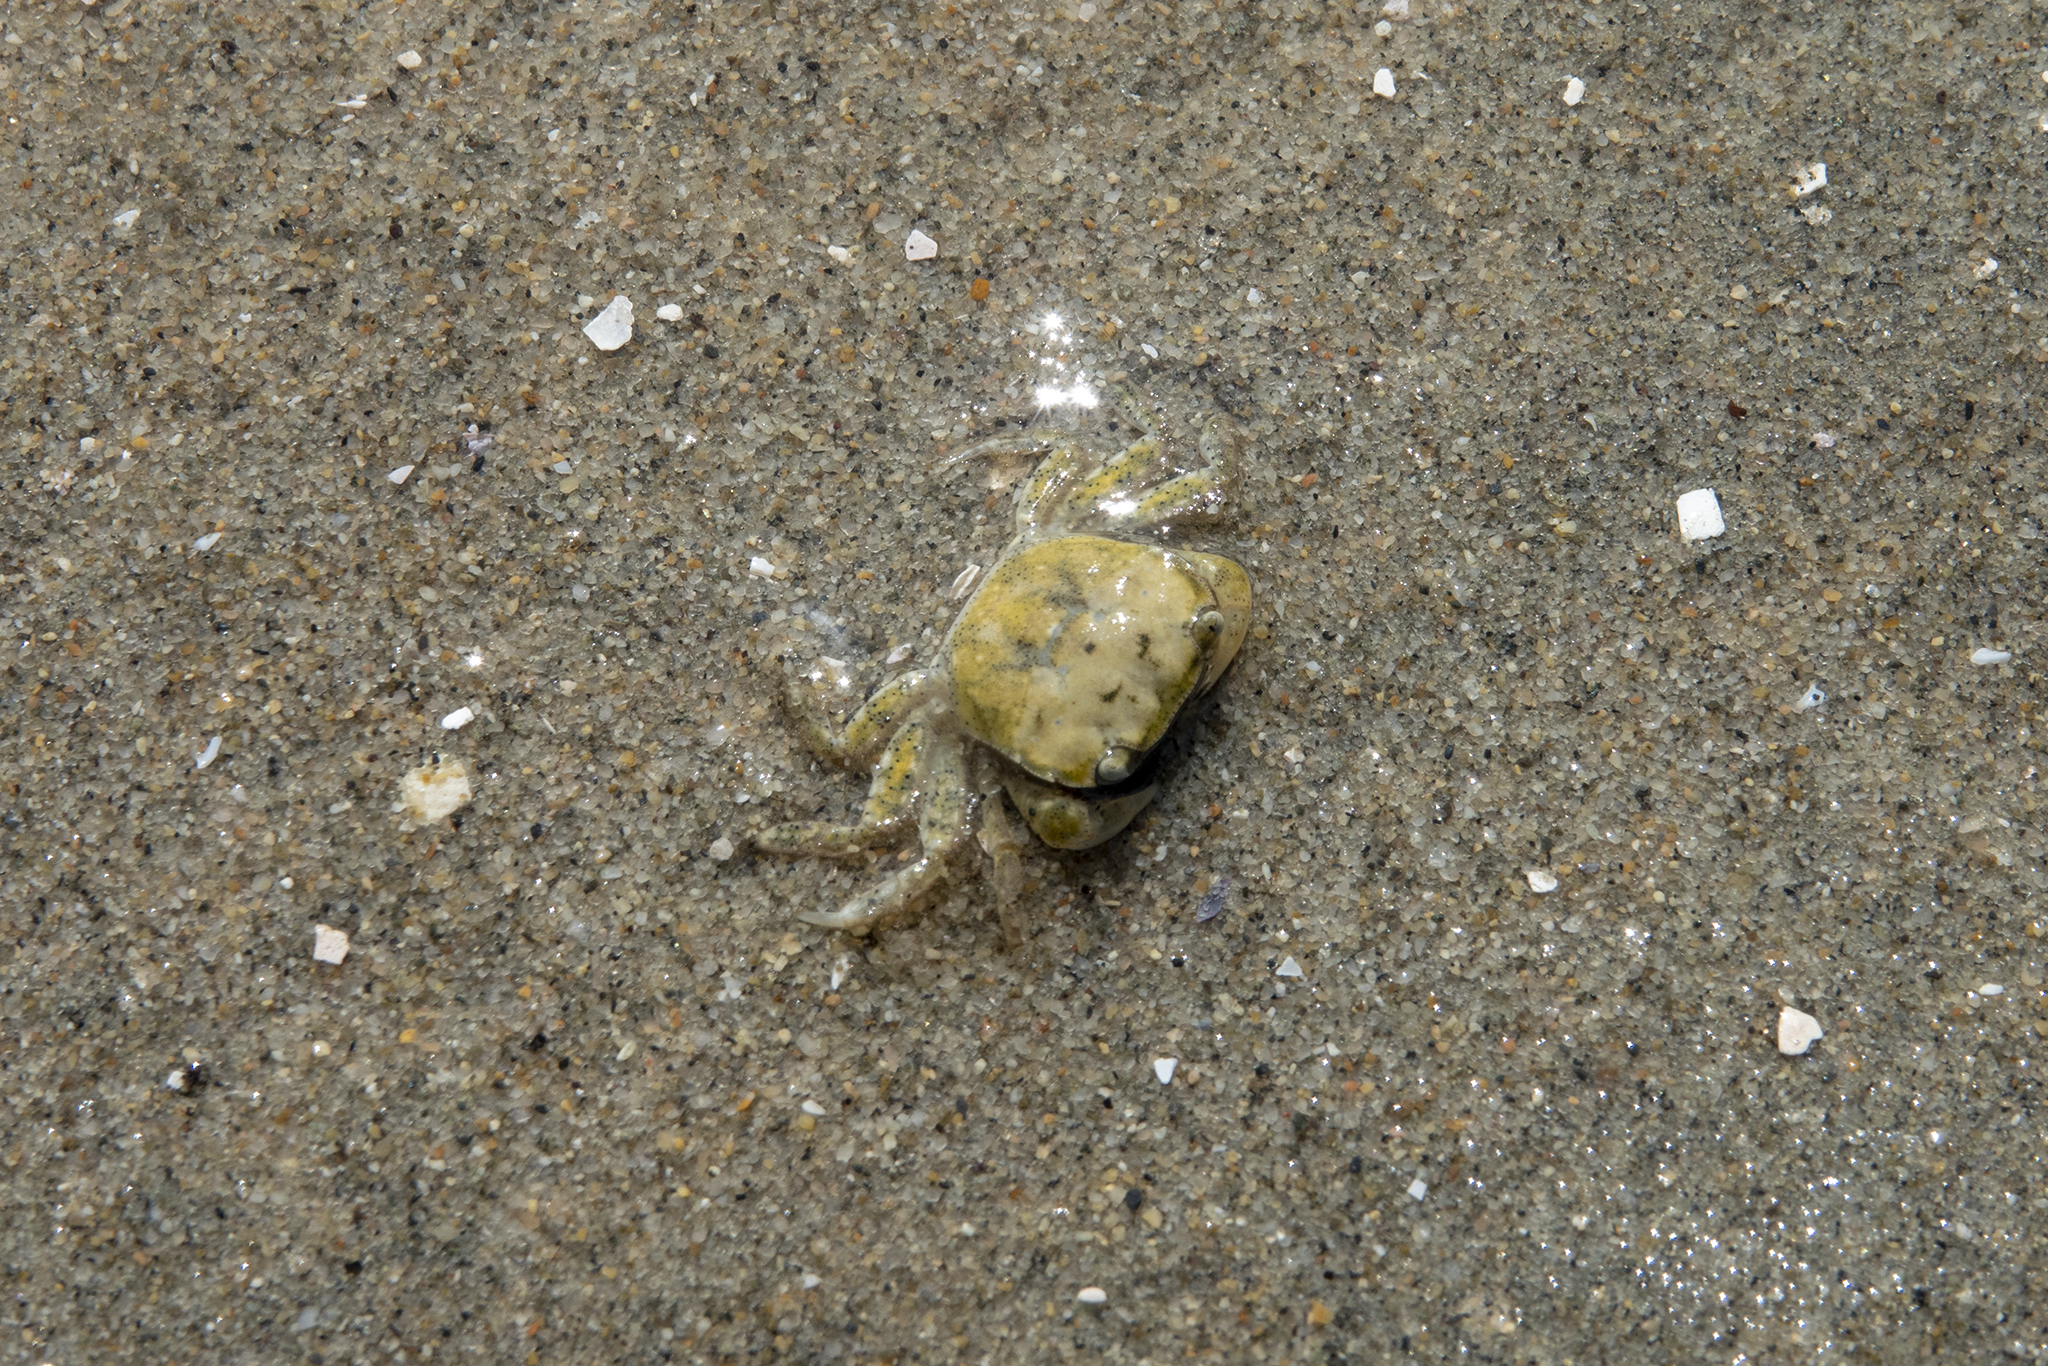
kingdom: Animalia
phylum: Arthropoda
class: Malacostraca
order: Decapoda
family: Varunidae
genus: Hemigrapsus
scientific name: Hemigrapsus crenulatus
